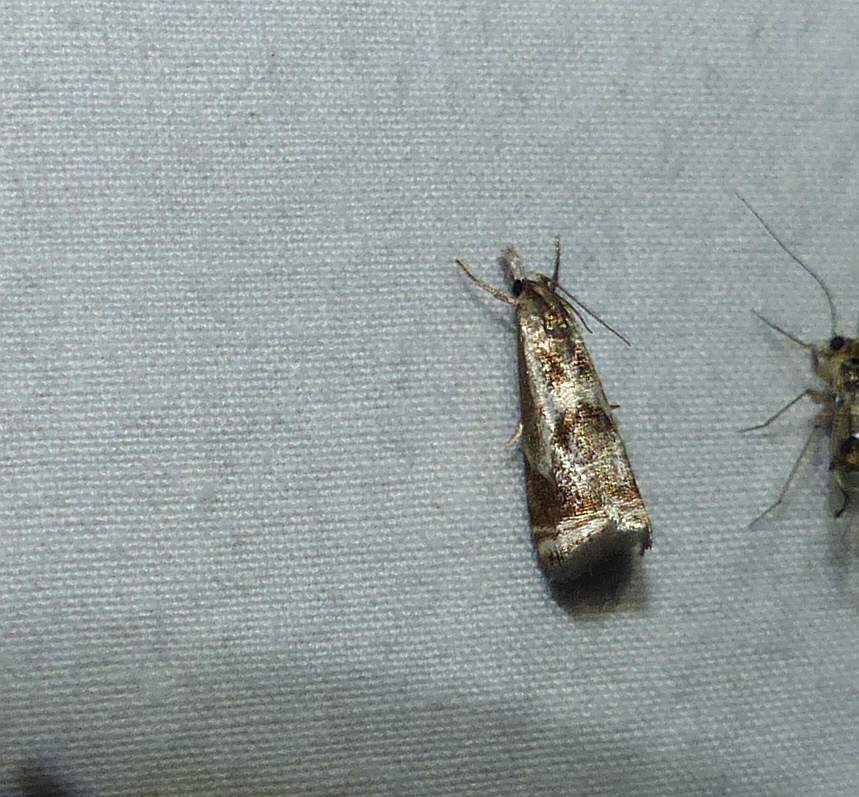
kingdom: Animalia
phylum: Arthropoda
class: Insecta
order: Lepidoptera
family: Crambidae
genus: Microcrambus
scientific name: Microcrambus elegans
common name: Elegant grass-veneer
